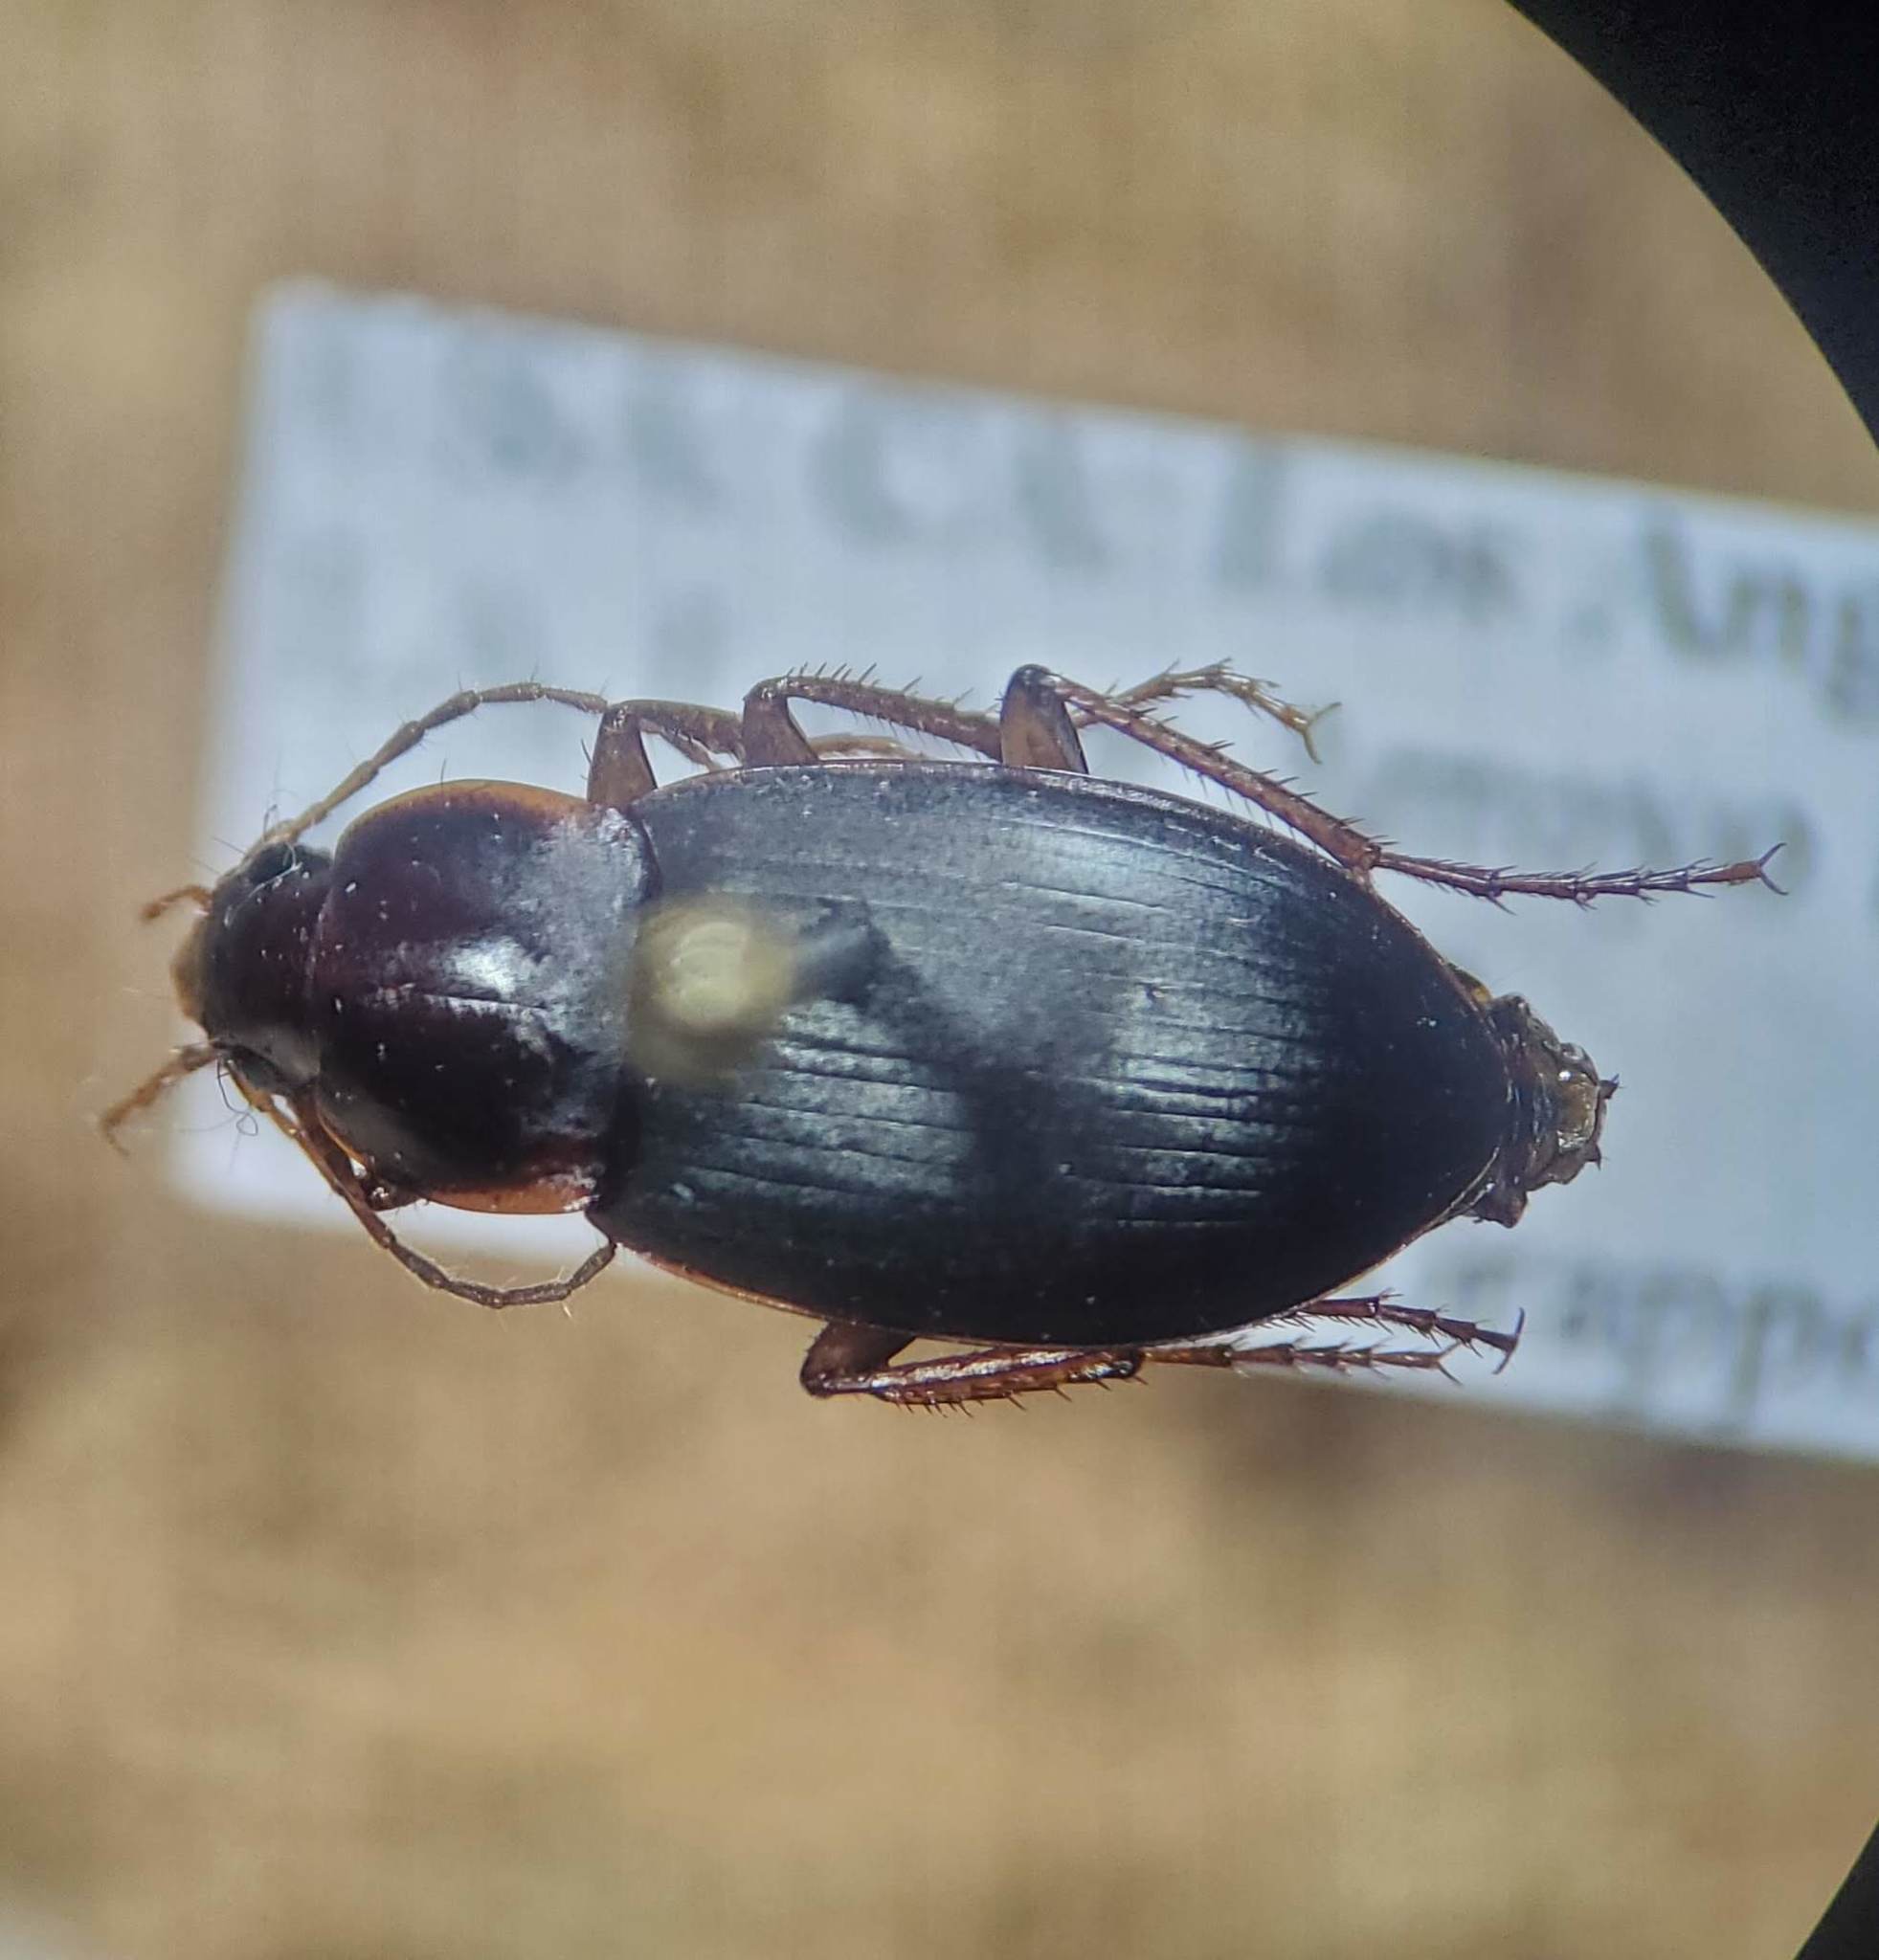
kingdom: Animalia
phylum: Arthropoda
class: Insecta
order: Coleoptera
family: Carabidae
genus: Calathus
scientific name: Calathus ruficollis
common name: Red-collared harp ground beetle
